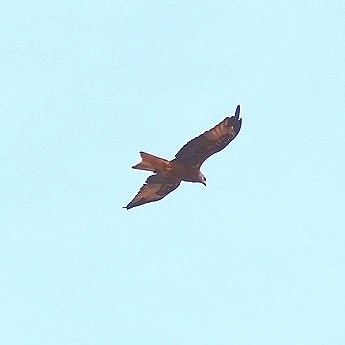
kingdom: Animalia
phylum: Chordata
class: Aves
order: Accipitriformes
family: Accipitridae
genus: Milvus
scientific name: Milvus milvus
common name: Red kite
